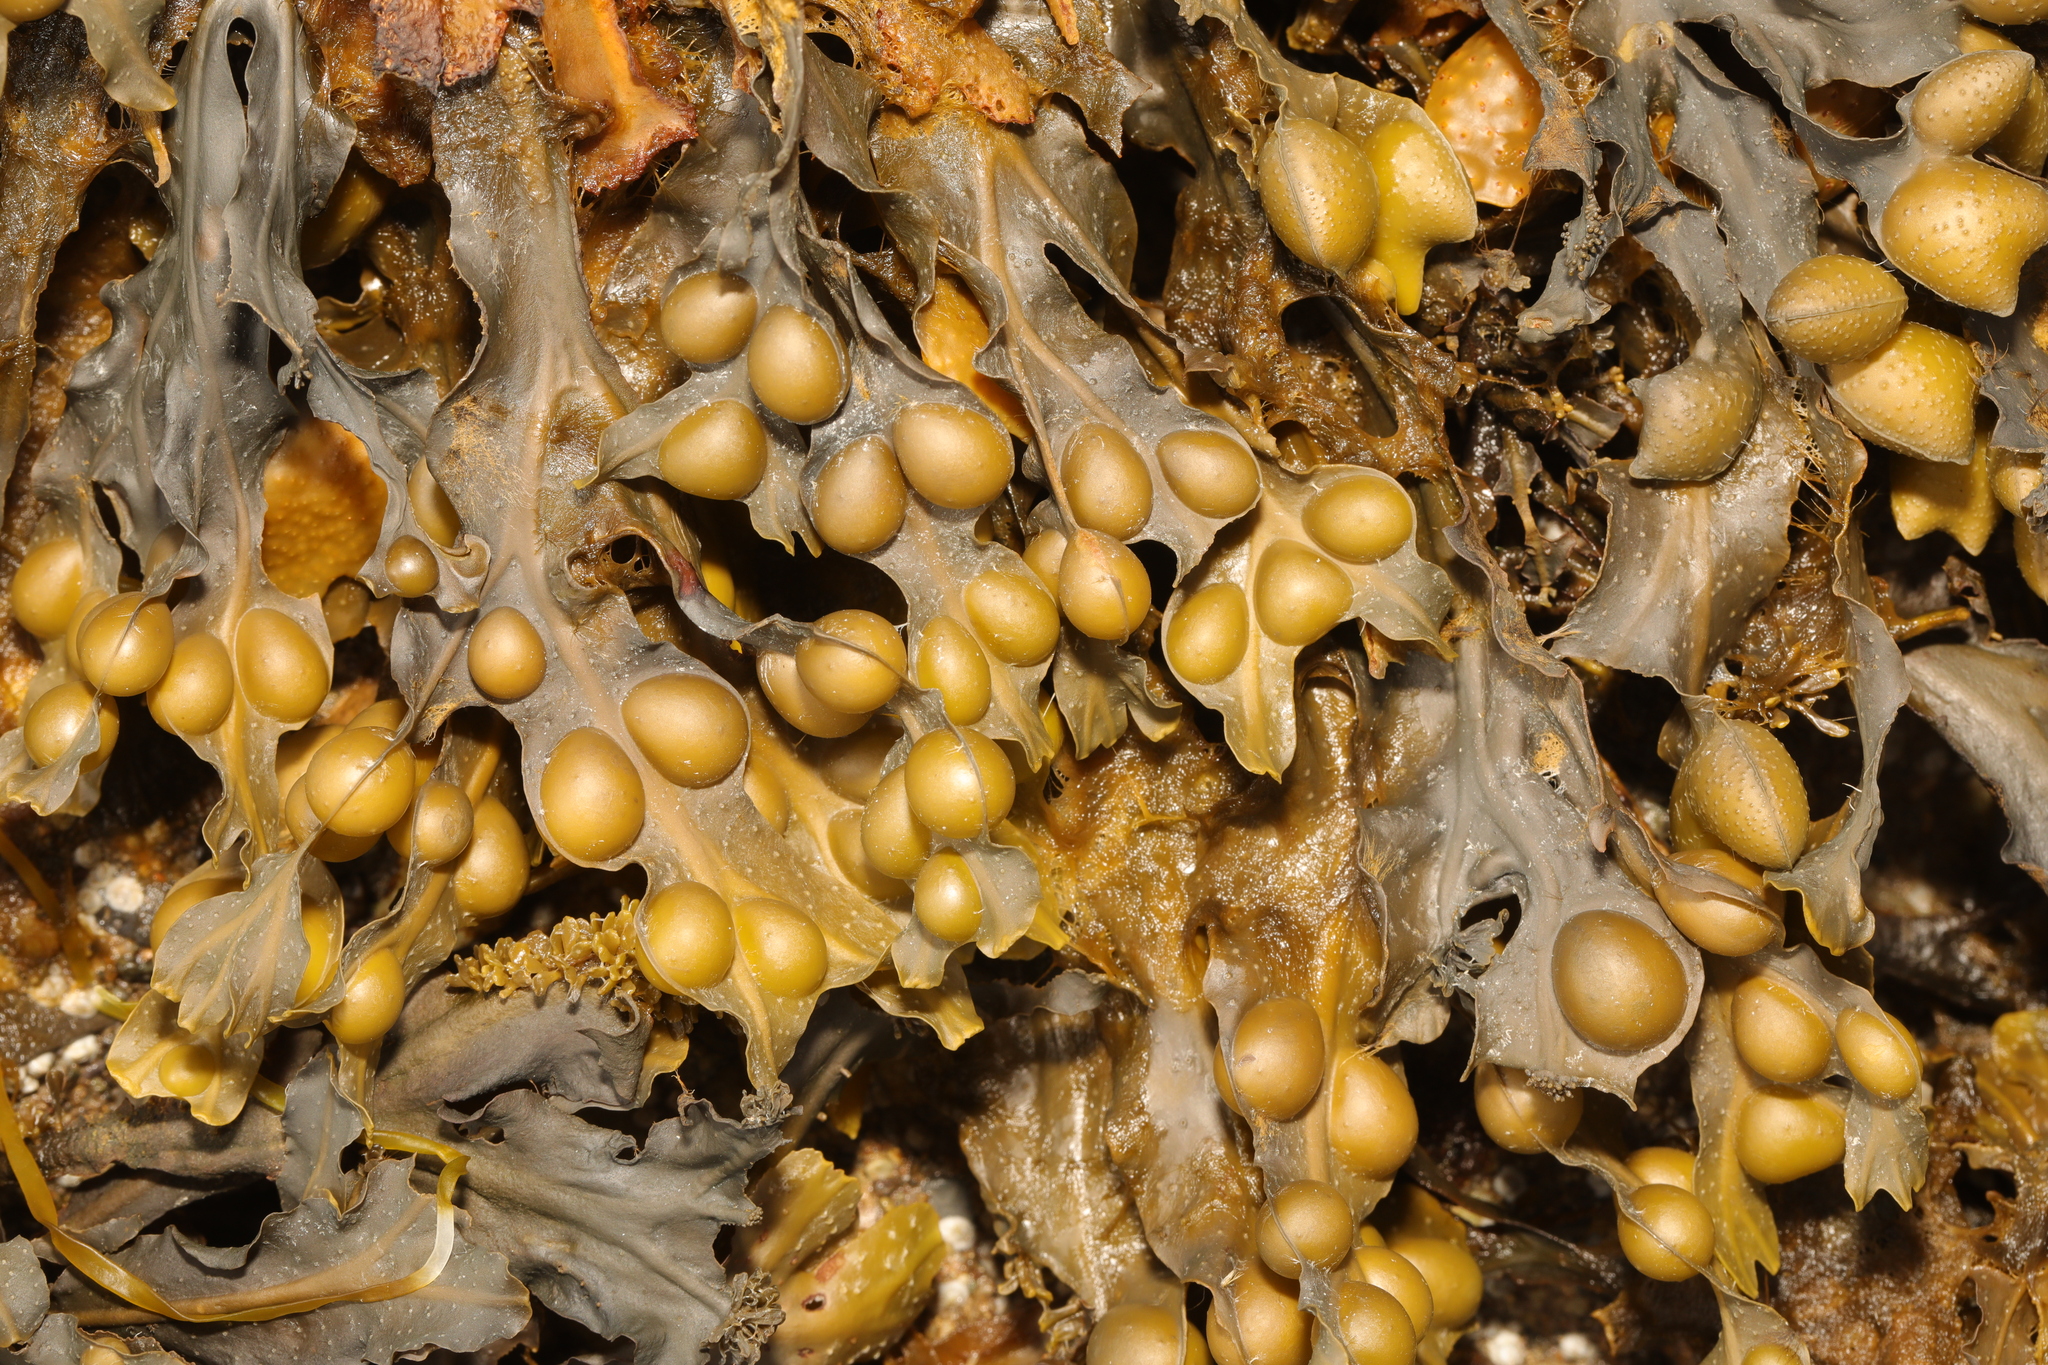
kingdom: Chromista
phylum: Ochrophyta
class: Phaeophyceae
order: Fucales
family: Fucaceae
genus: Fucus
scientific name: Fucus vesiculosus
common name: Bladder wrack
